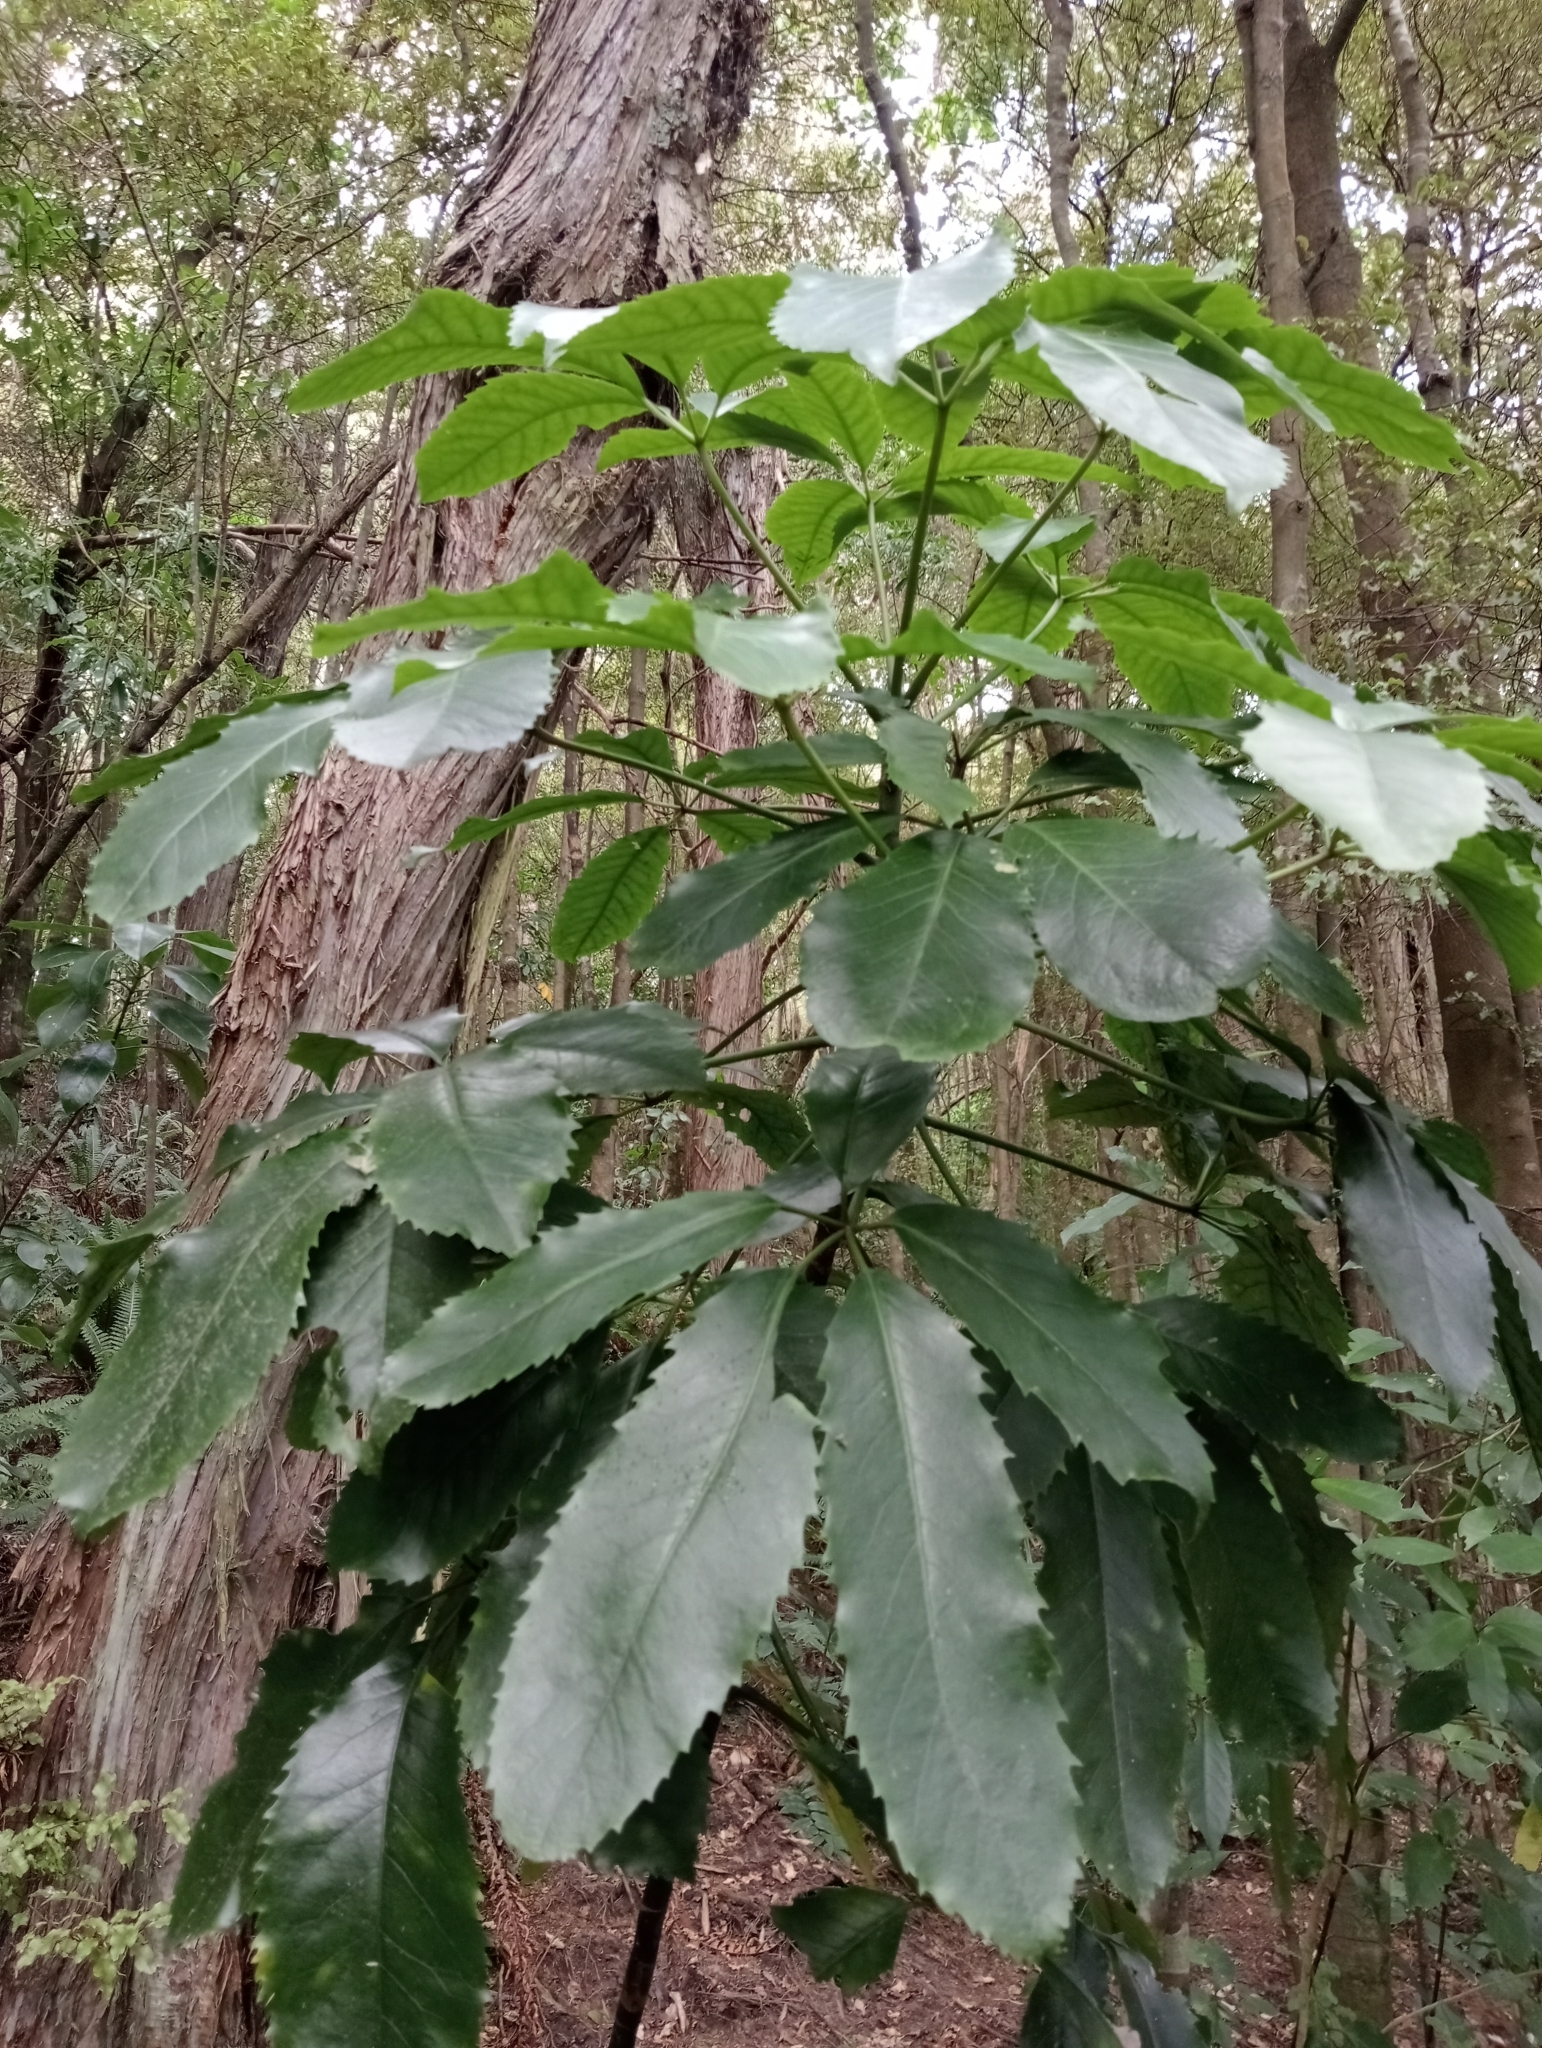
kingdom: Plantae
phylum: Tracheophyta
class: Magnoliopsida
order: Apiales
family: Araliaceae
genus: Neopanax
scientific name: Neopanax arboreus
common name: Five-fingers
